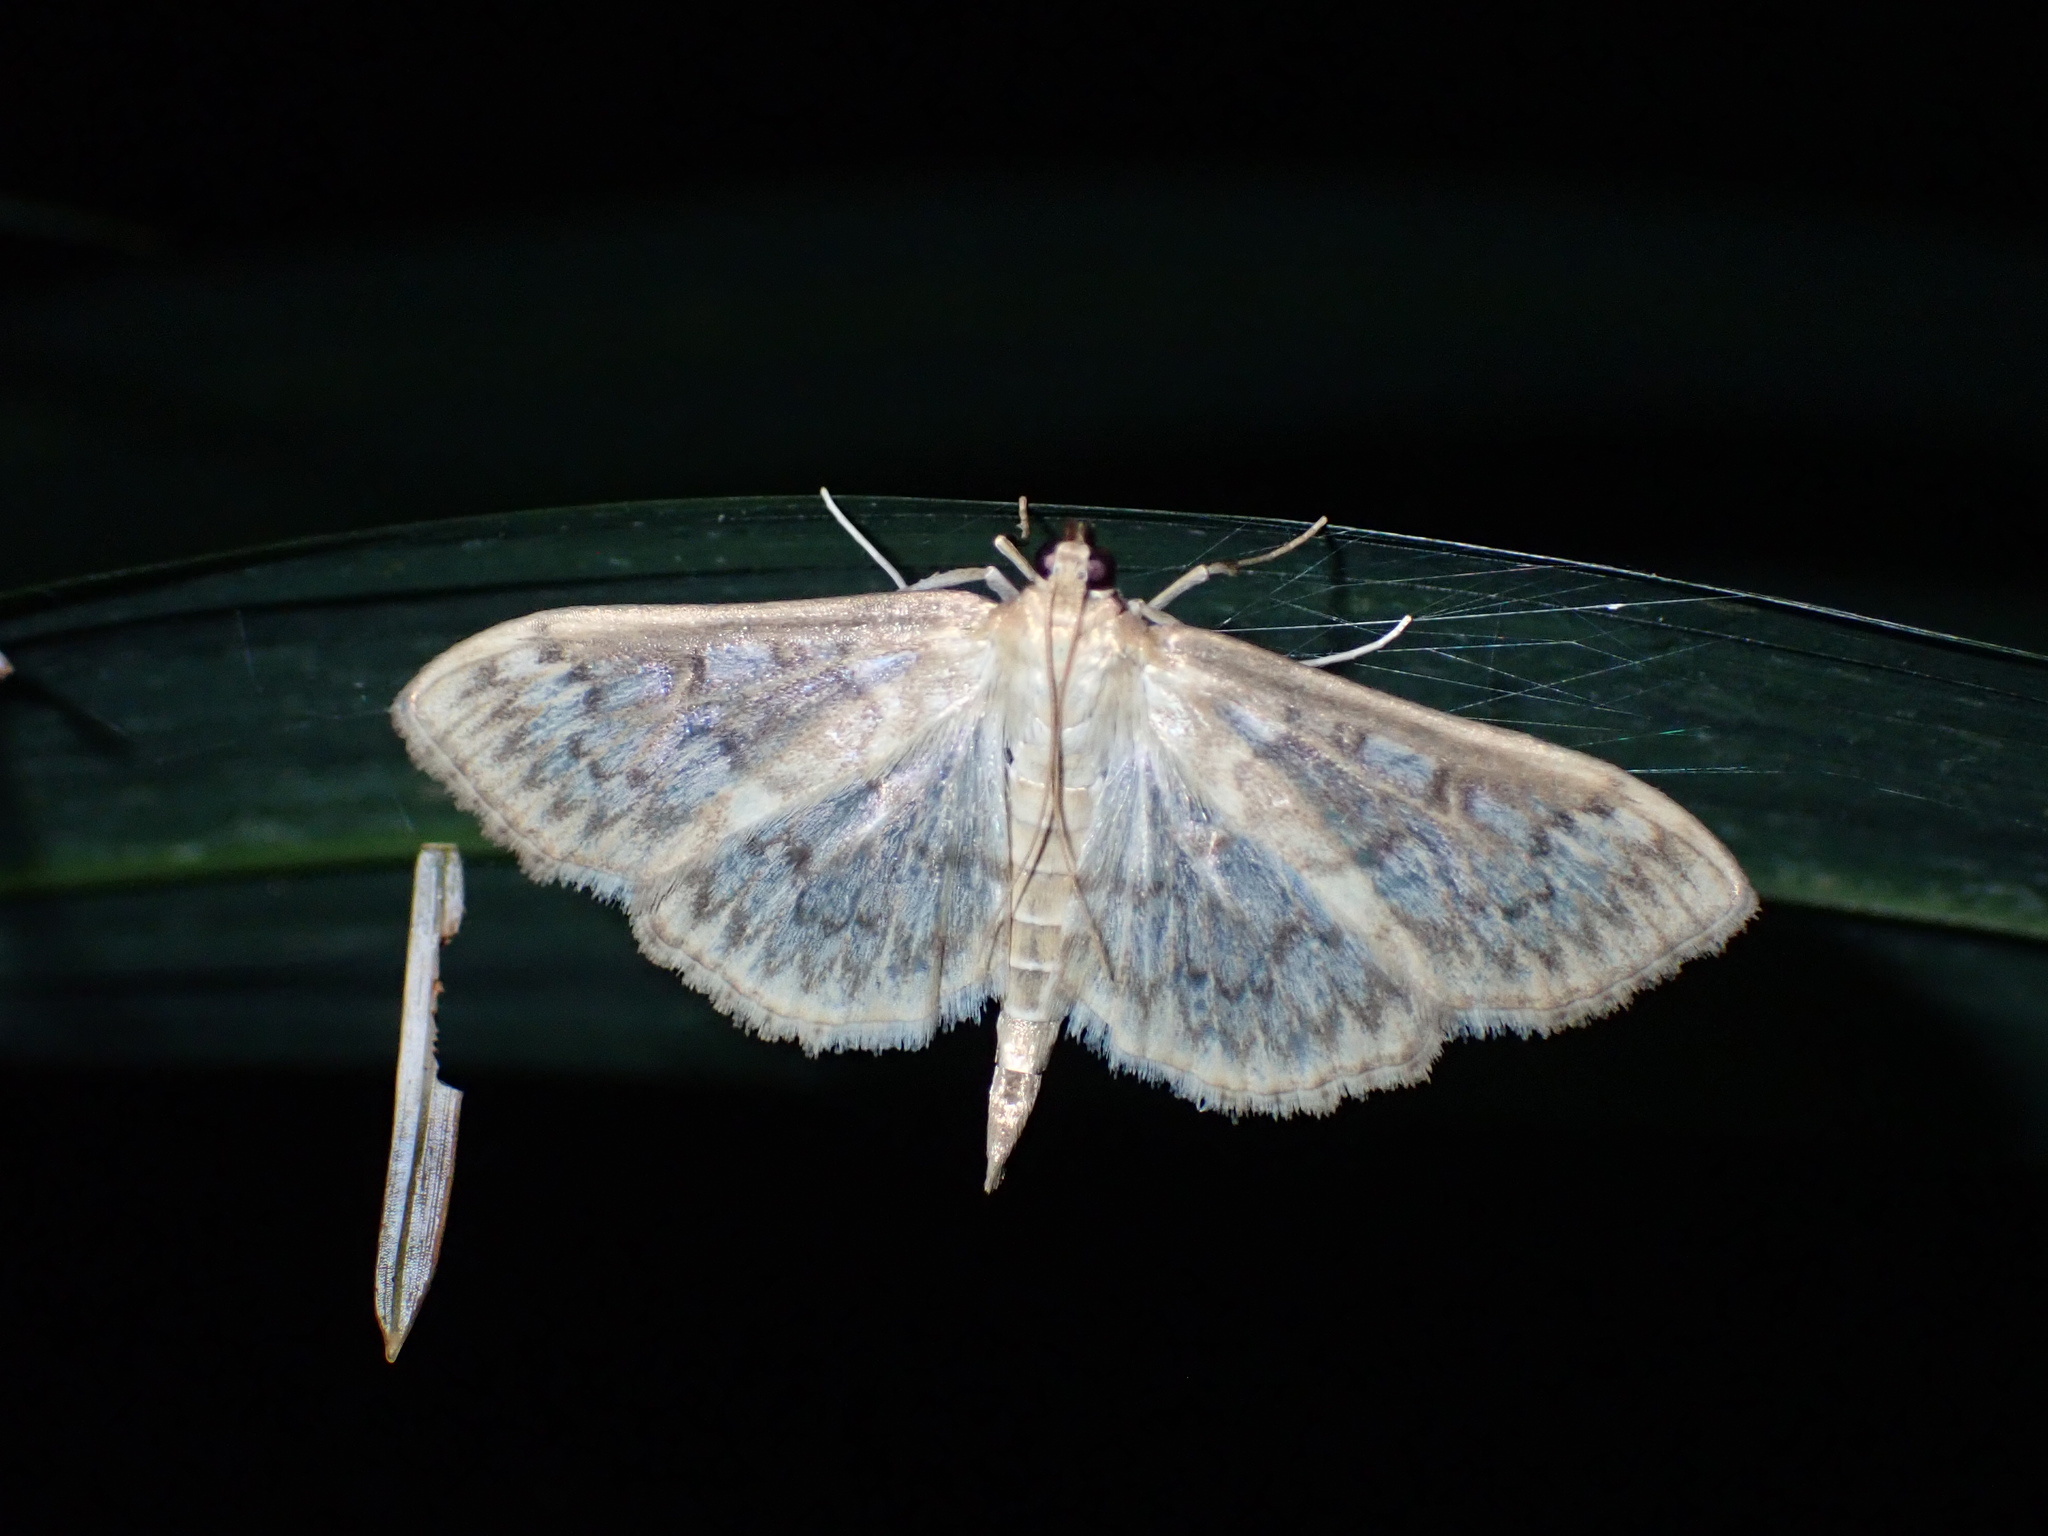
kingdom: Animalia
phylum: Arthropoda
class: Insecta
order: Lepidoptera
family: Crambidae
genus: Herpetogramma
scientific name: Herpetogramma aquilonalis
